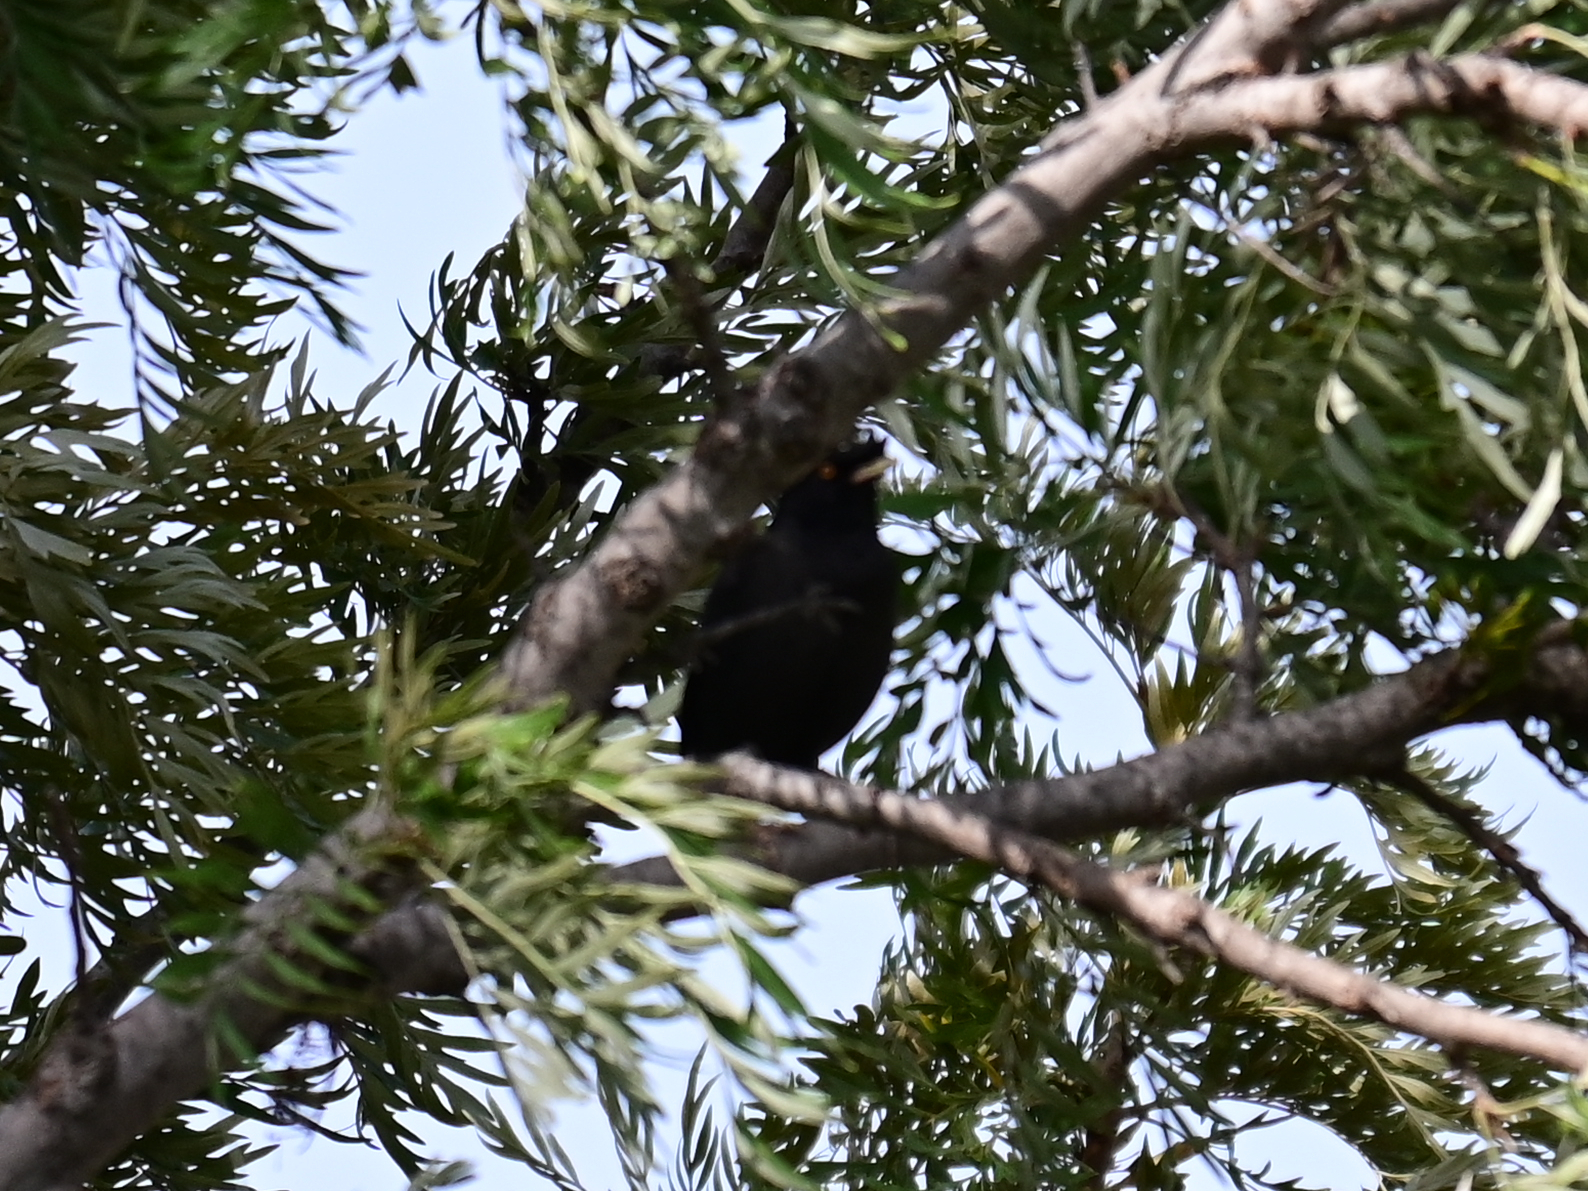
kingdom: Animalia
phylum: Chordata
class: Aves
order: Passeriformes
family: Sturnidae
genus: Acridotheres
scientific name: Acridotheres cristatellus
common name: Crested myna
